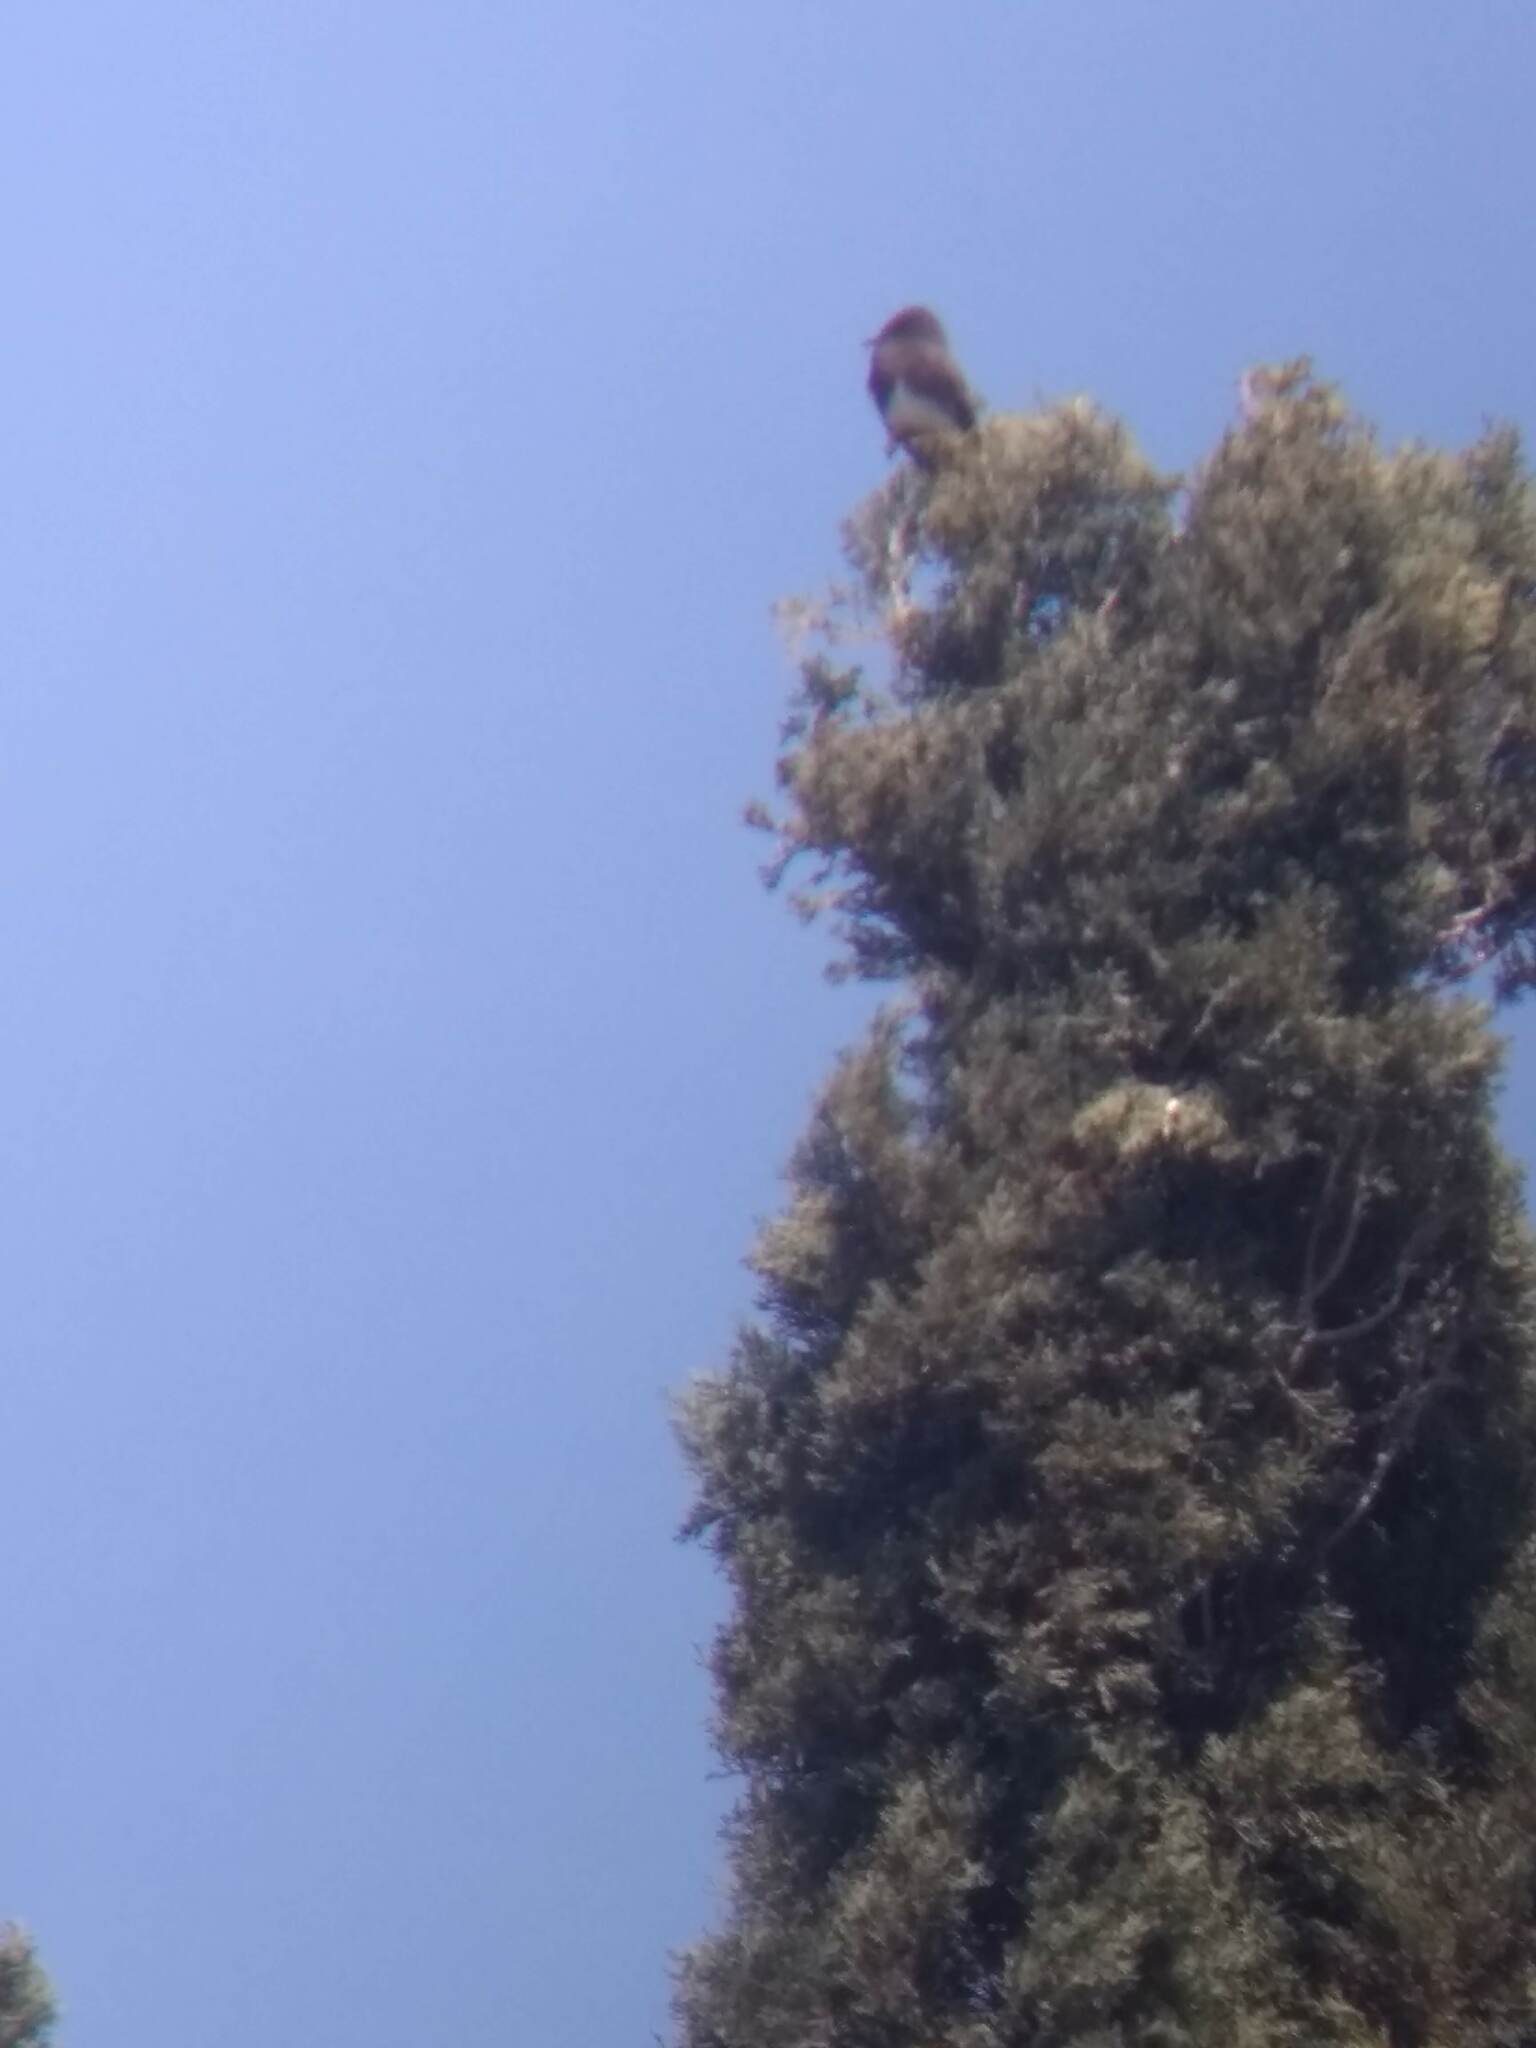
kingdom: Animalia
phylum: Chordata
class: Aves
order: Passeriformes
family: Tyrannidae
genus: Sayornis
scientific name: Sayornis nigricans
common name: Black phoebe
